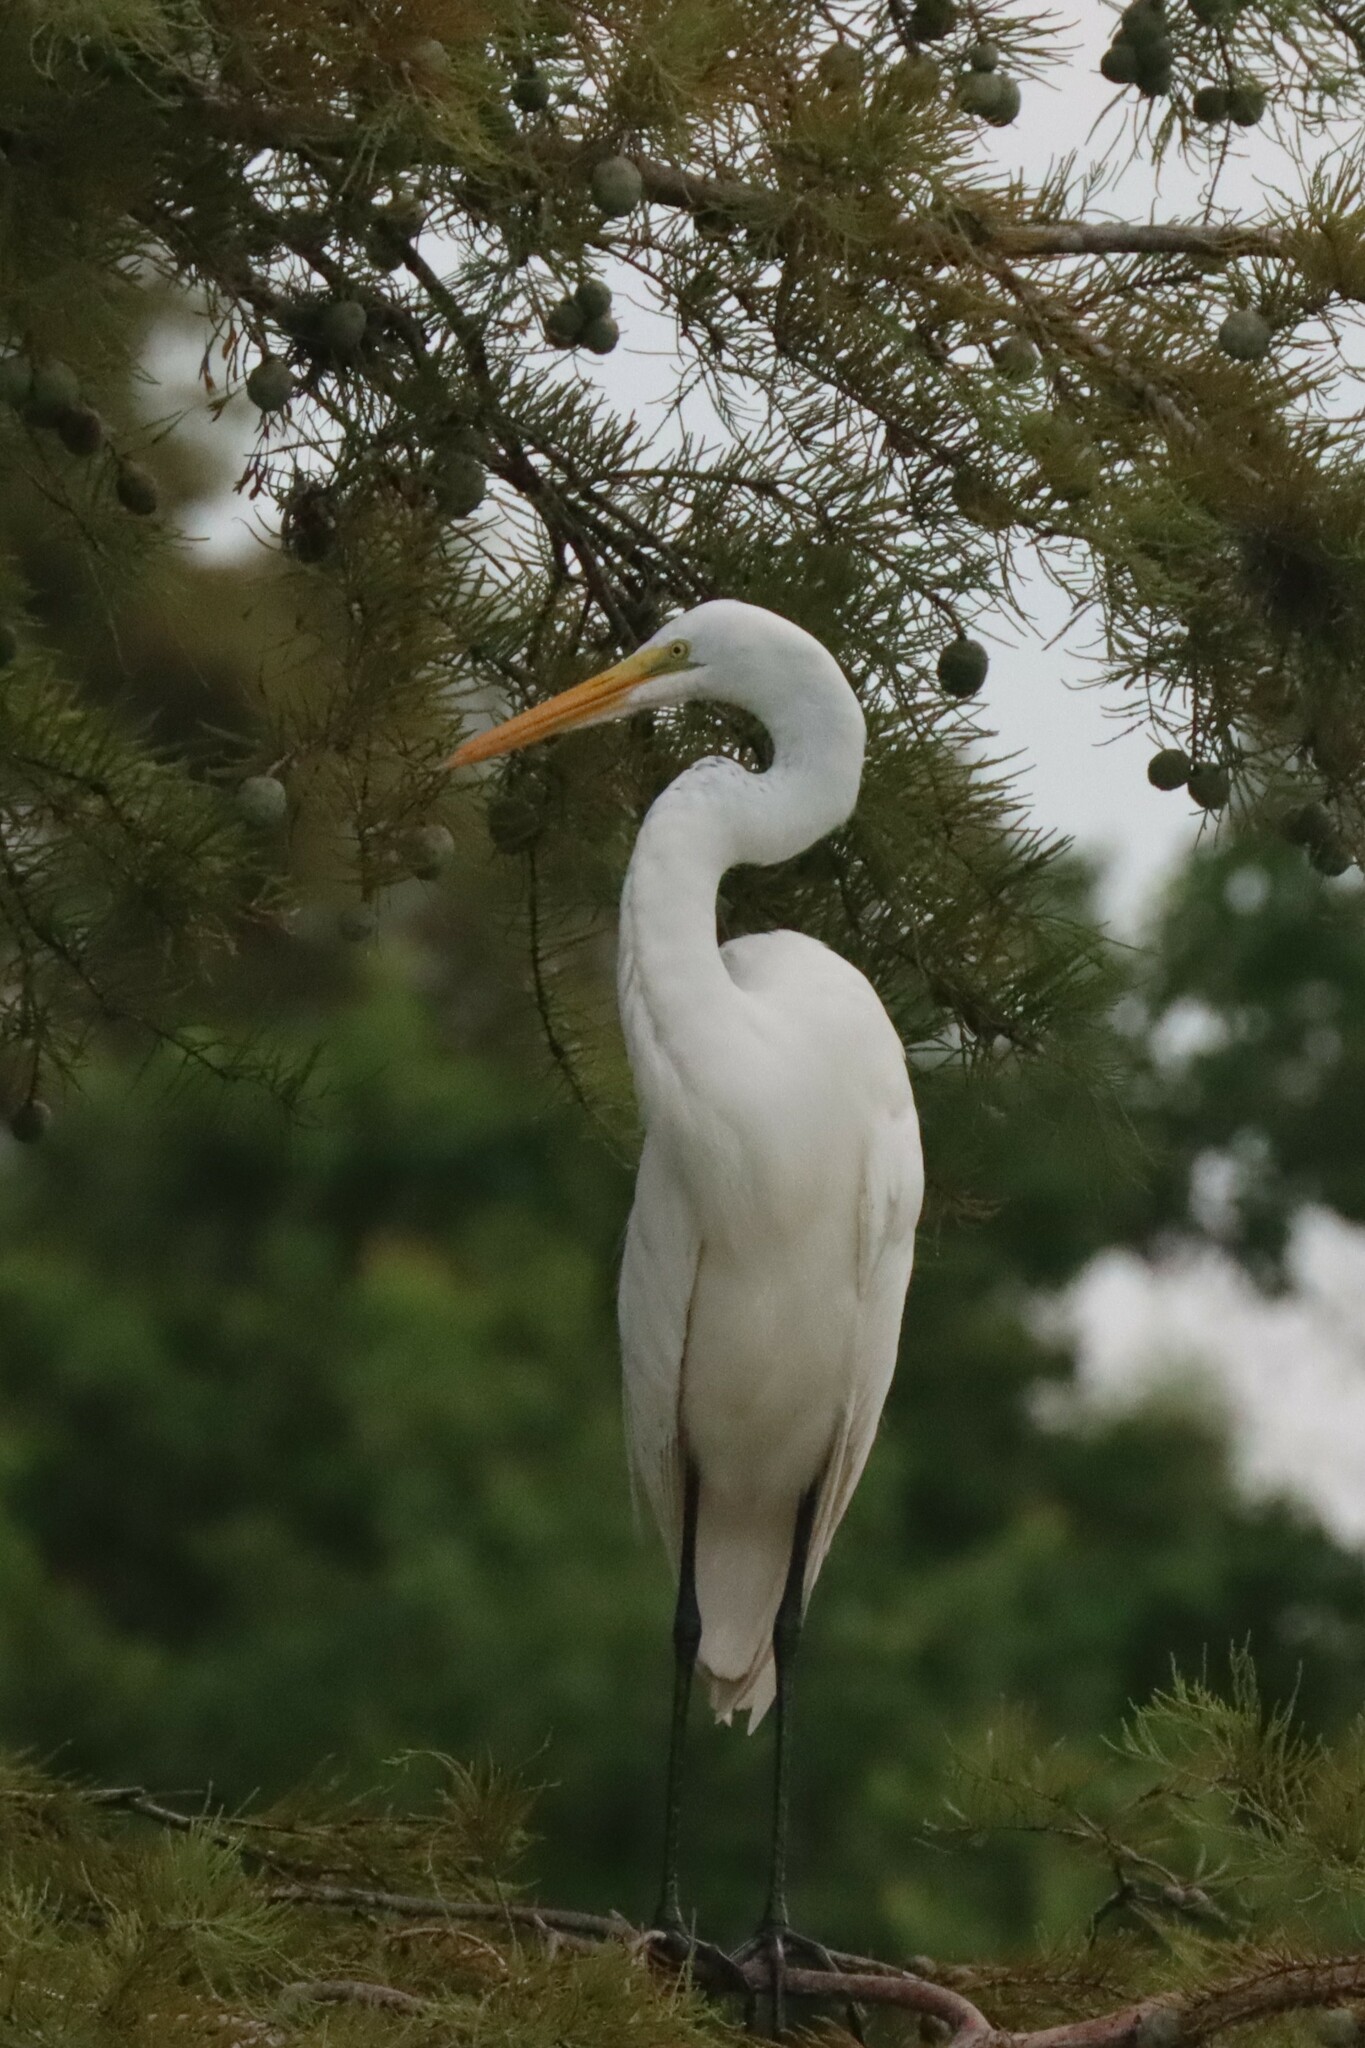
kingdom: Animalia
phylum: Chordata
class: Aves
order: Pelecaniformes
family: Ardeidae
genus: Ardea
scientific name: Ardea alba
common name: Great egret
